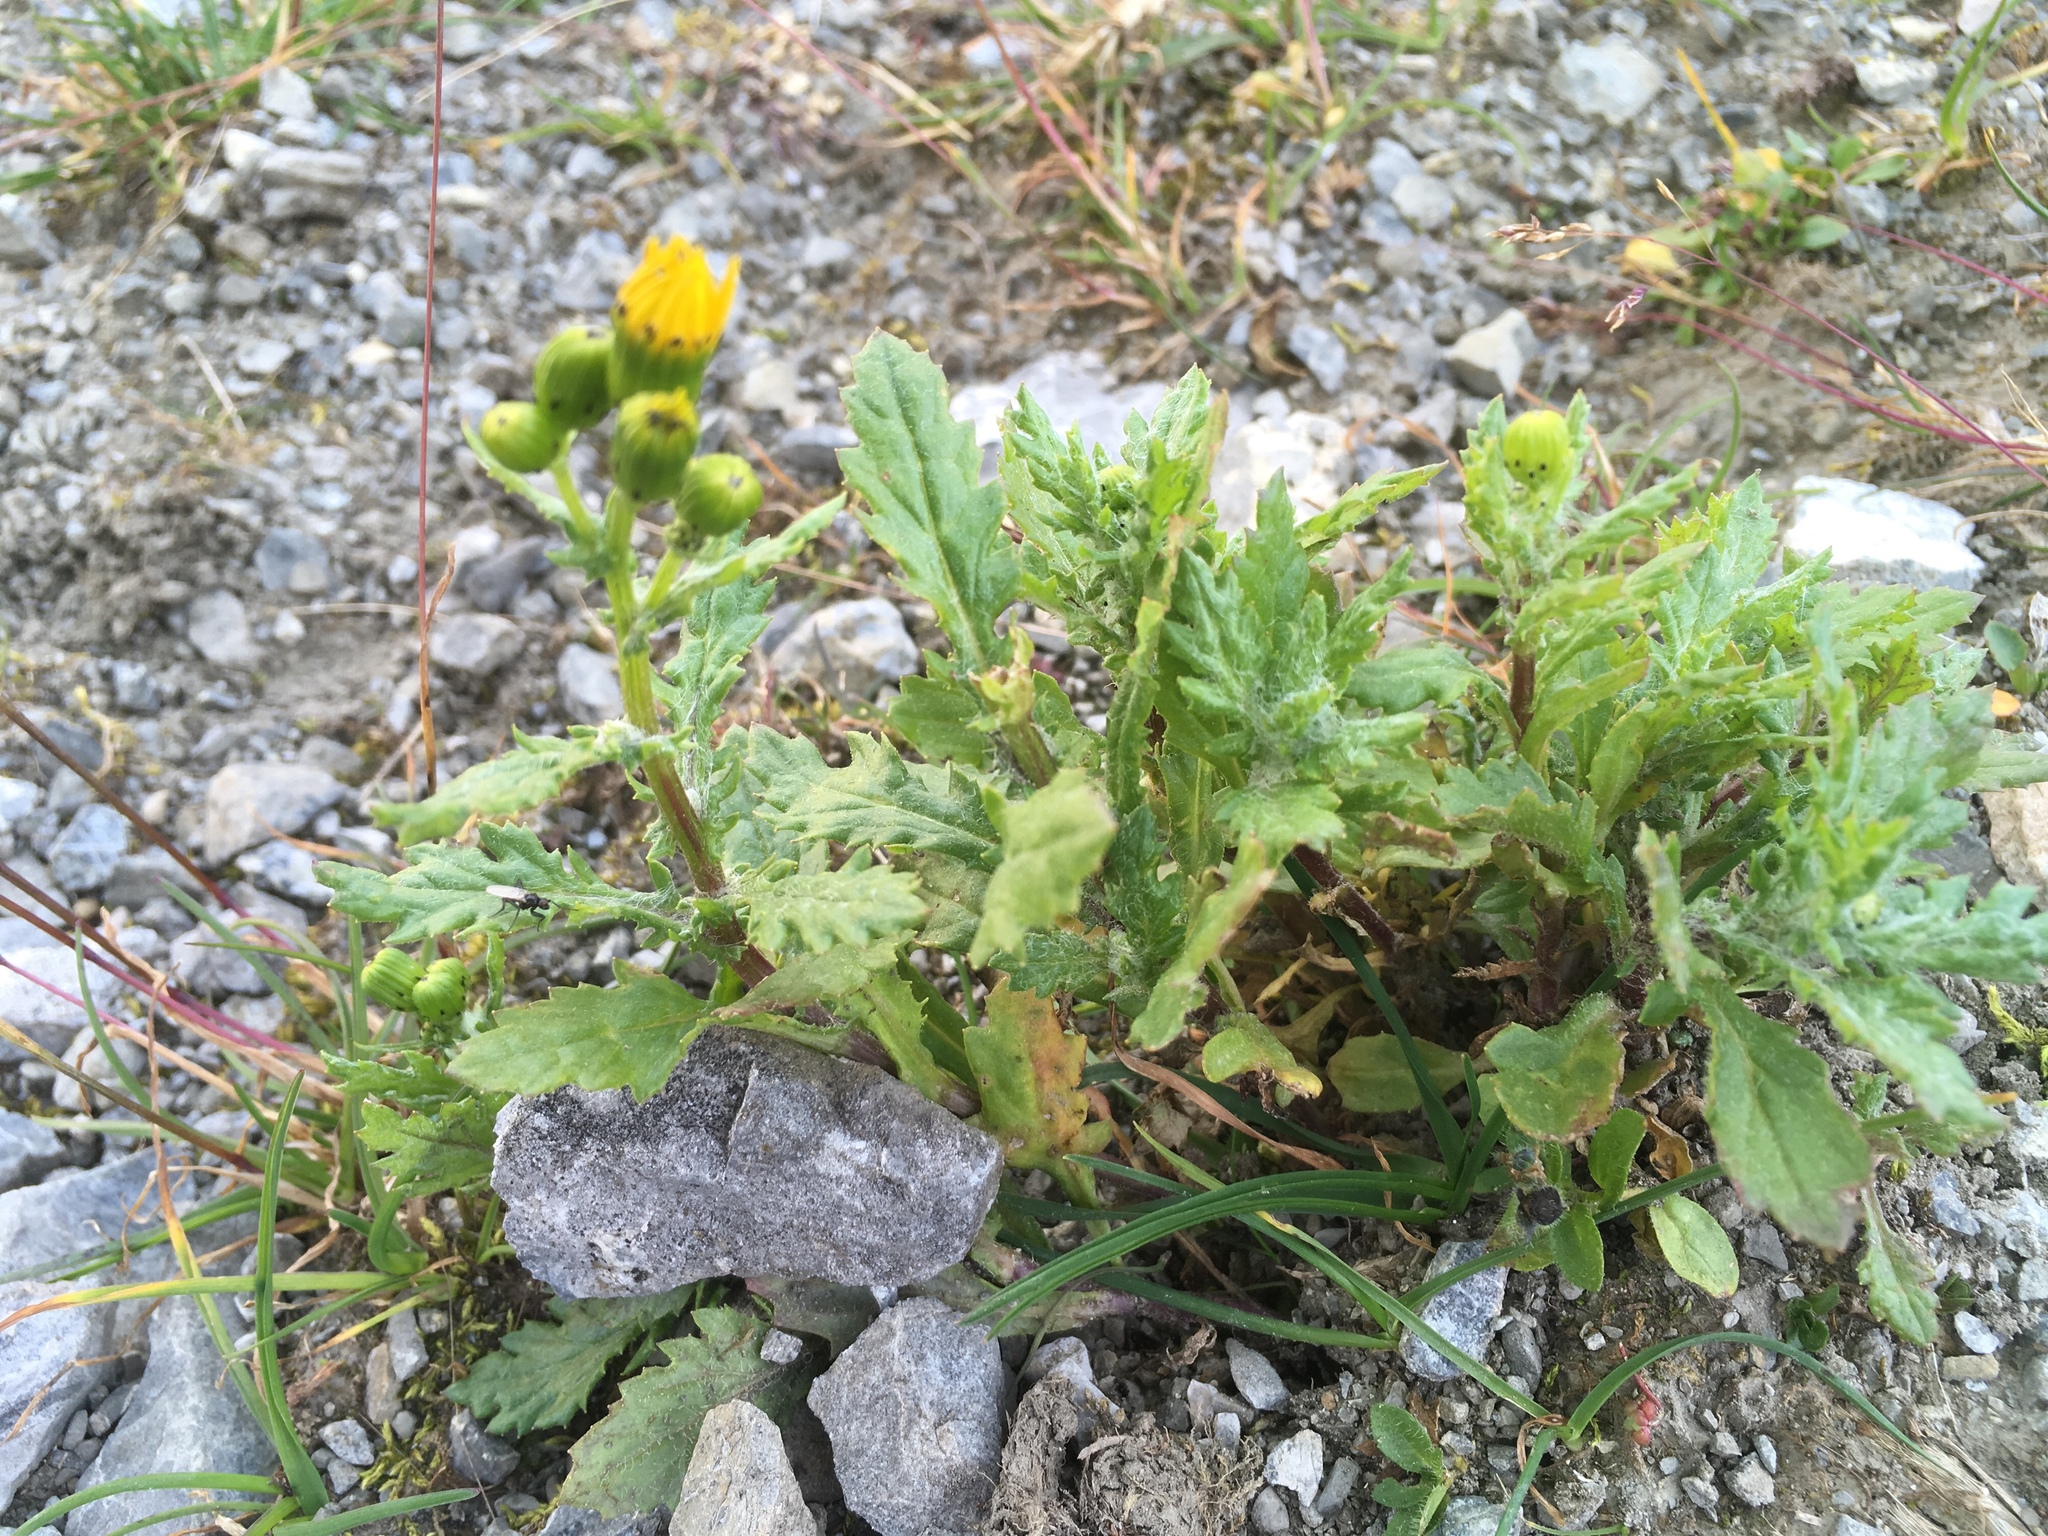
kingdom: Plantae
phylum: Tracheophyta
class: Magnoliopsida
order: Asterales
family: Asteraceae
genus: Senecio
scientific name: Senecio rupestris
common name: Rock ragwort
